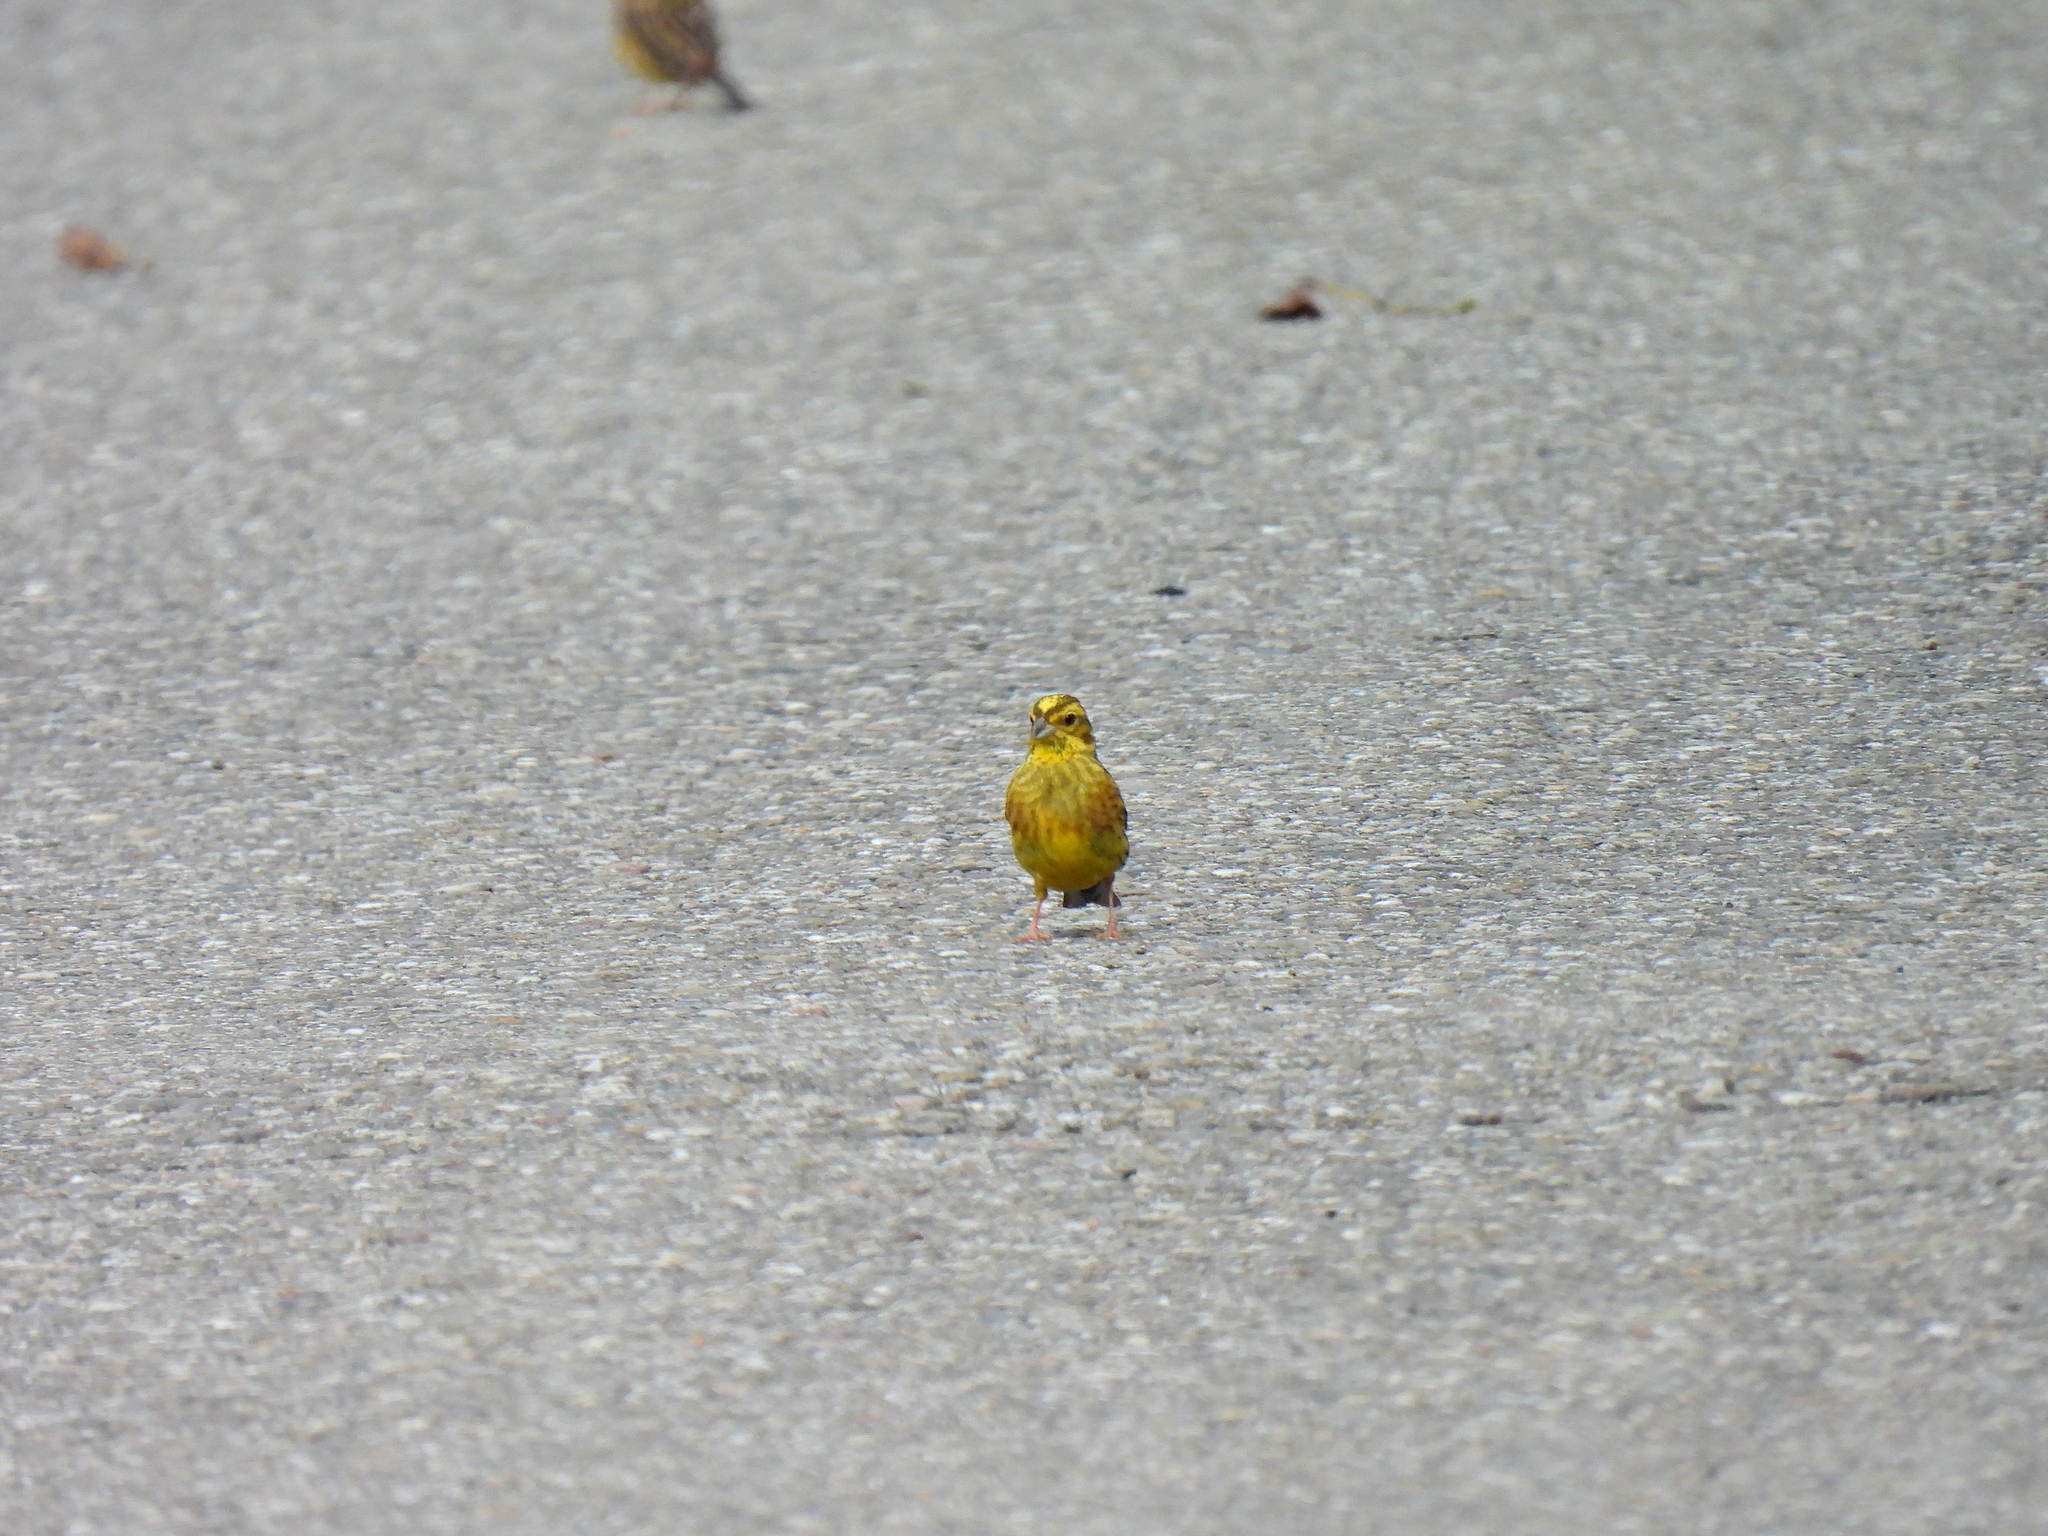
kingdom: Animalia
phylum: Chordata
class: Aves
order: Passeriformes
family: Emberizidae
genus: Emberiza
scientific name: Emberiza citrinella
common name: Yellowhammer
